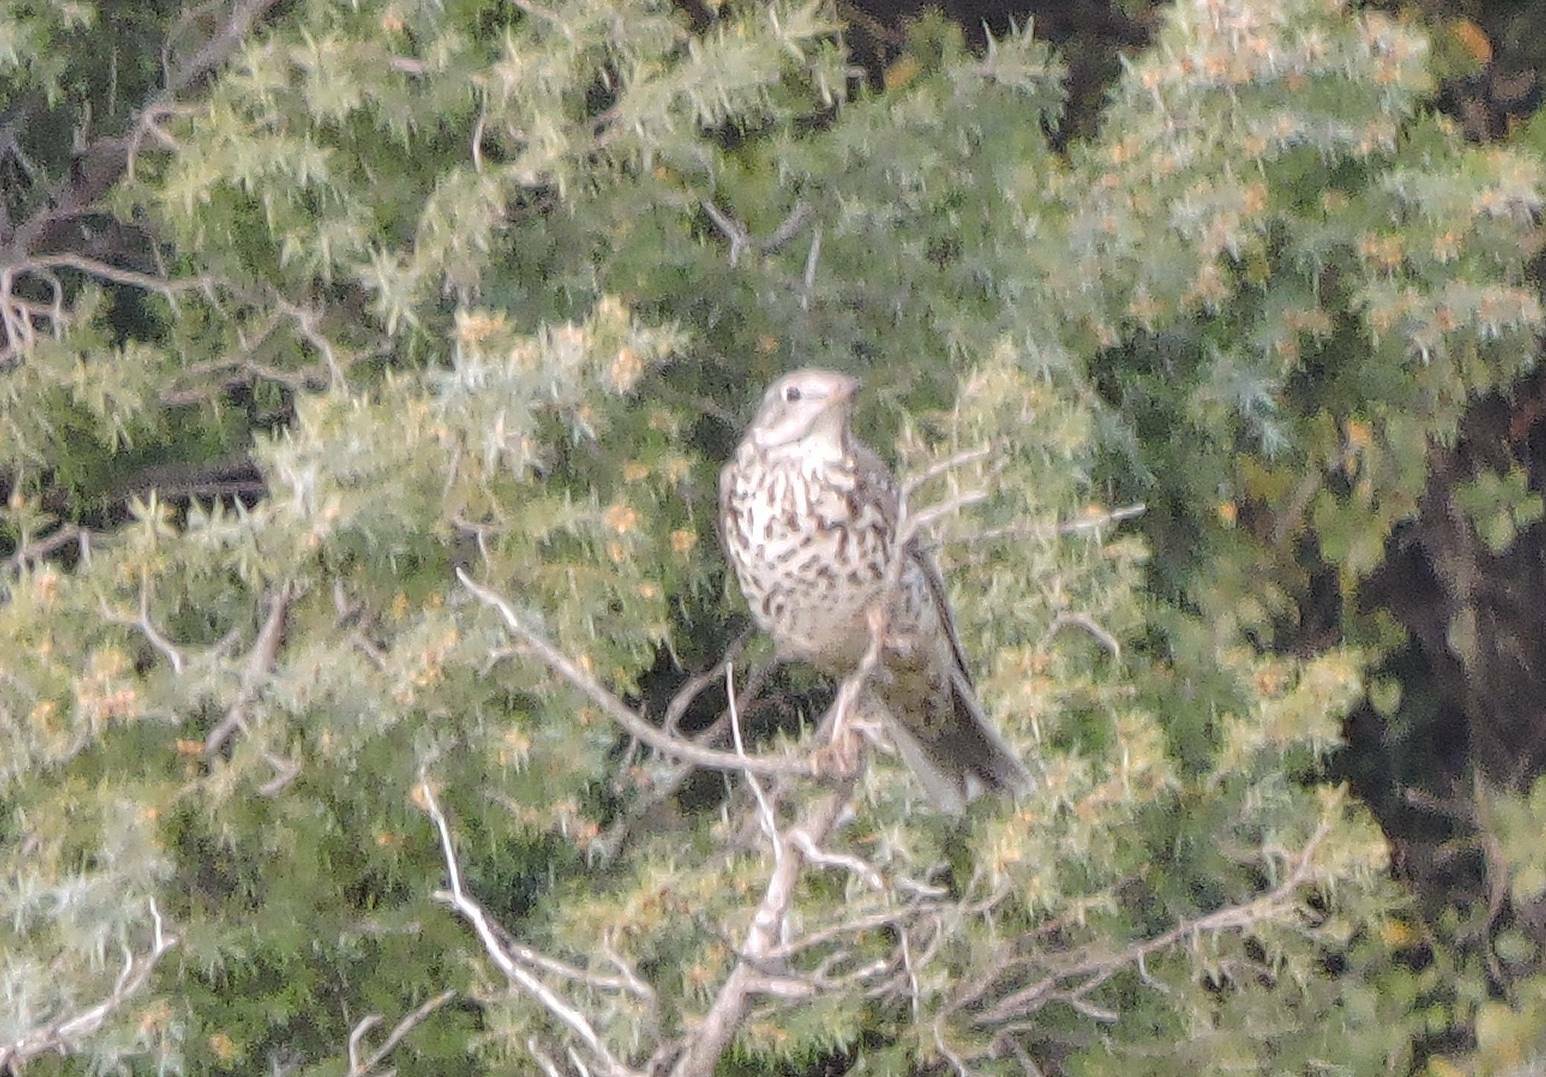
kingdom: Animalia
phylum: Chordata
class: Aves
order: Passeriformes
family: Turdidae
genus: Turdus
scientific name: Turdus viscivorus
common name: Mistle thrush
